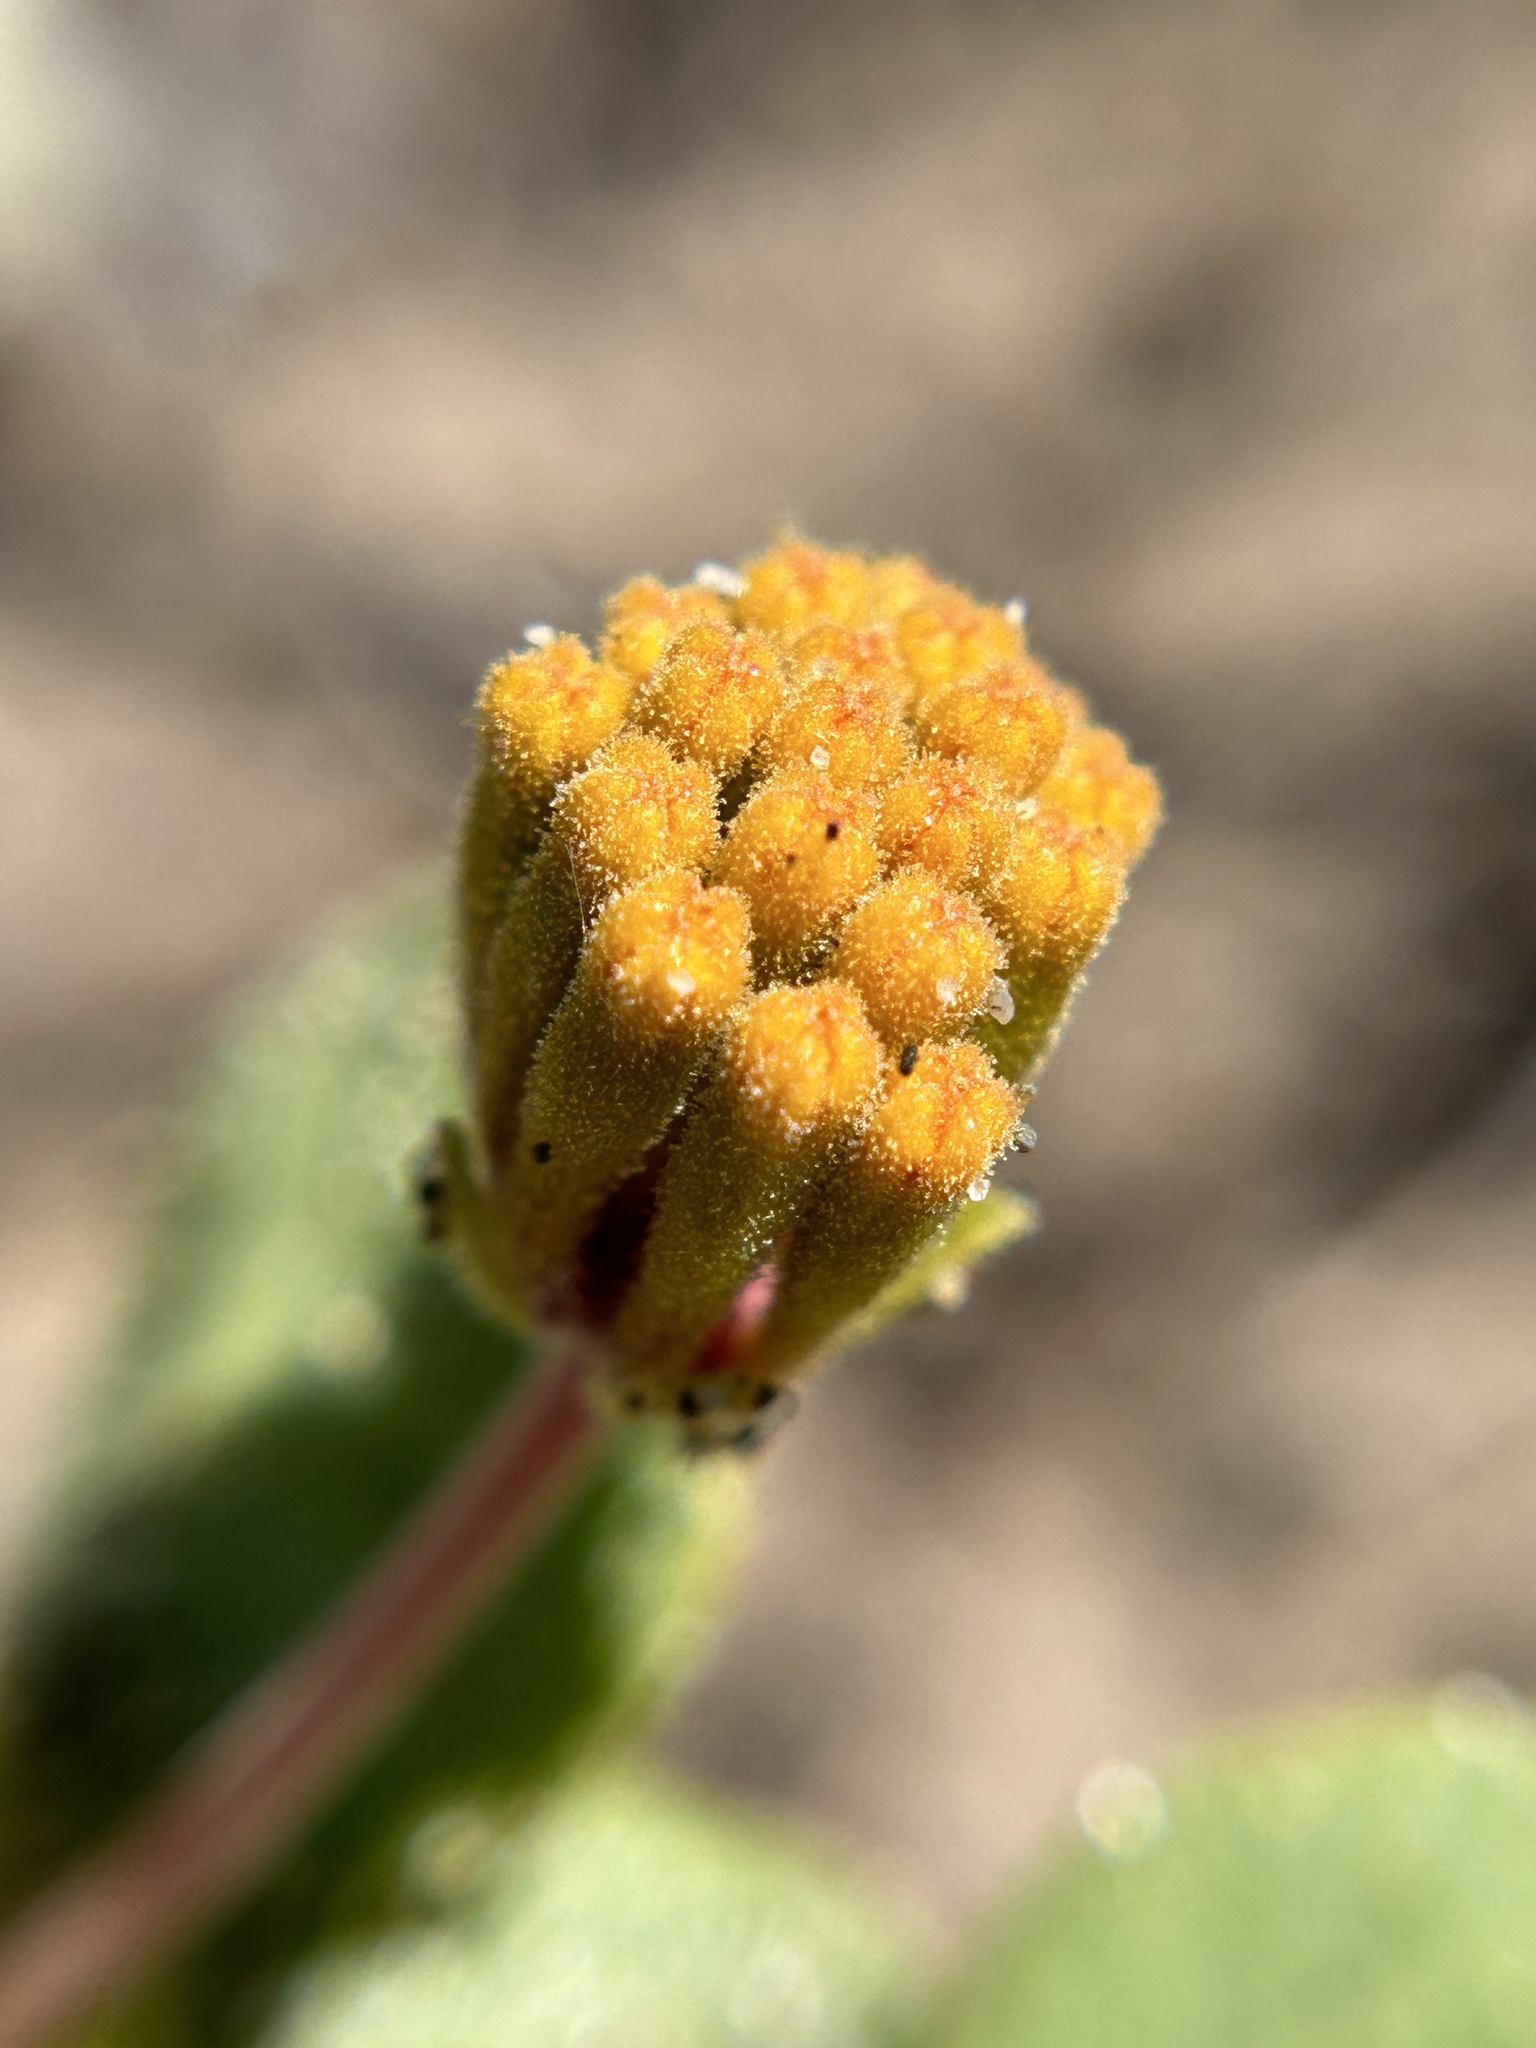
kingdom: Plantae
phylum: Tracheophyta
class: Magnoliopsida
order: Caryophyllales
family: Nyctaginaceae
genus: Abronia
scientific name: Abronia latifolia
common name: Yellow sand-verbena
